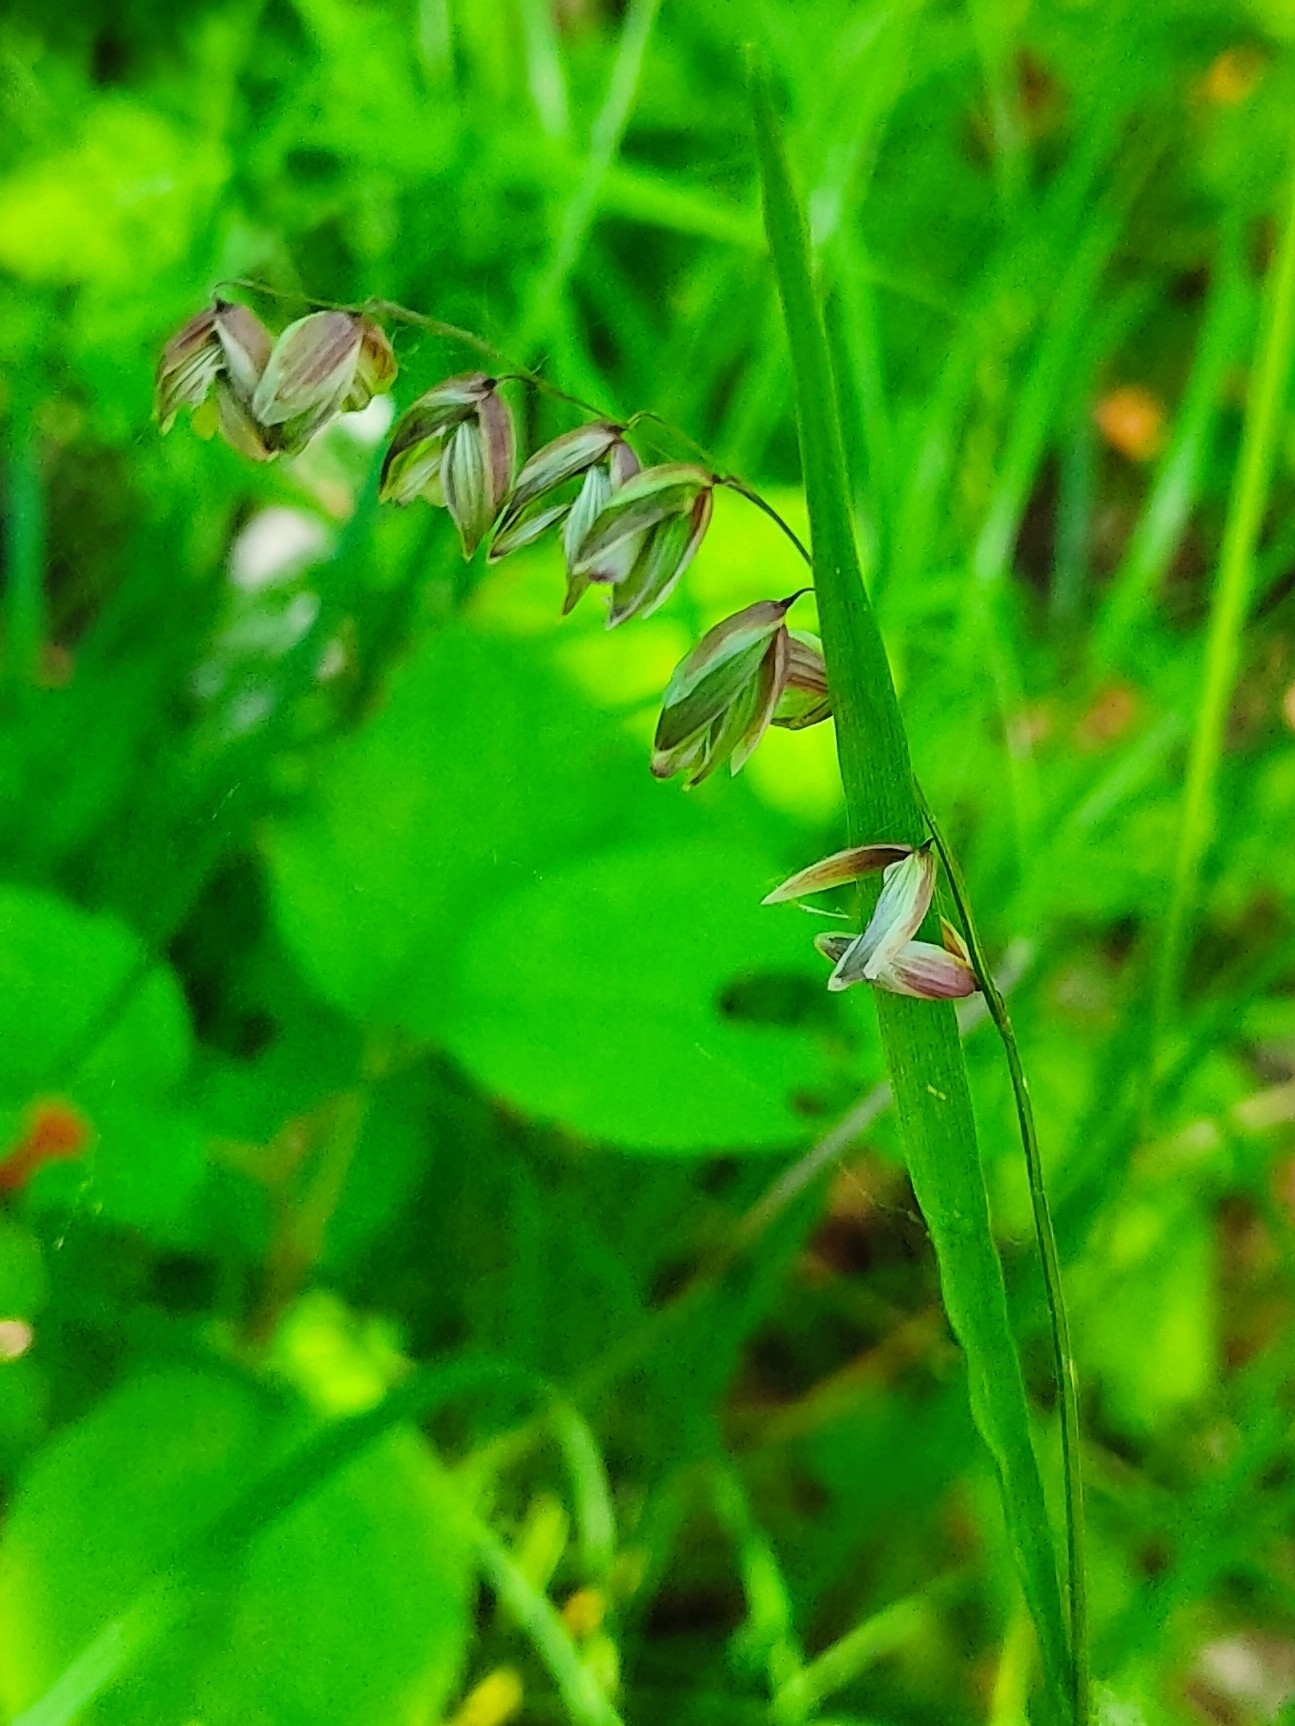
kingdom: Plantae
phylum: Tracheophyta
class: Liliopsida
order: Poales
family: Poaceae
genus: Melica
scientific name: Melica nutans
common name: Mountain melick
